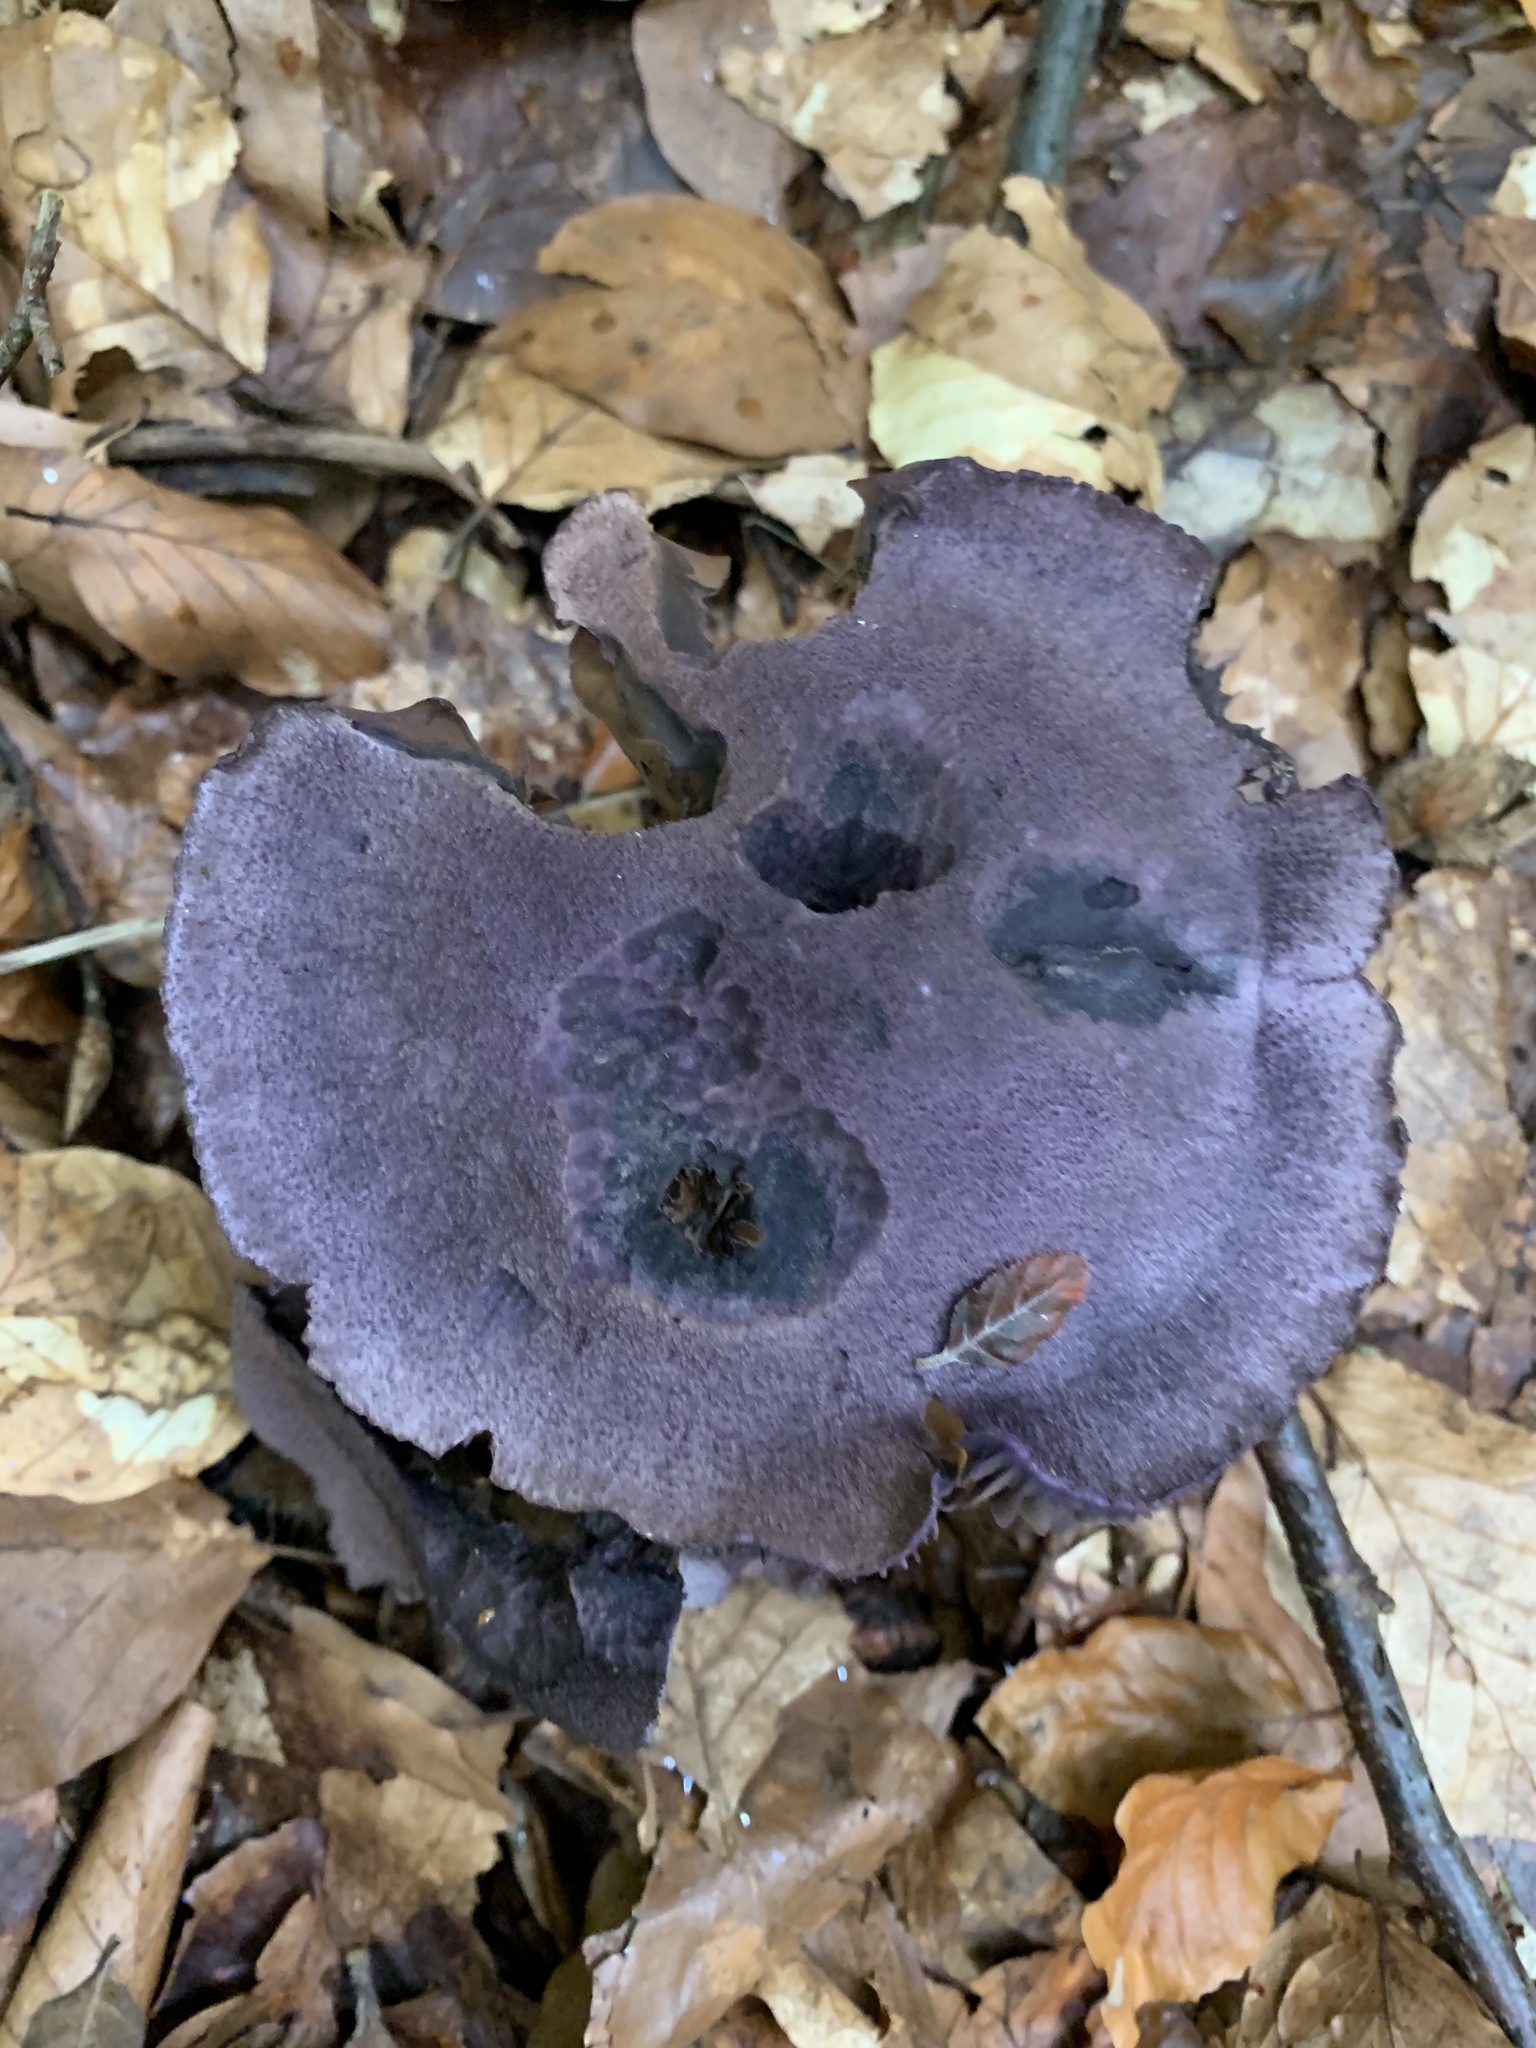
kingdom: Fungi
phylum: Basidiomycota
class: Agaricomycetes
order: Agaricales
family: Cortinariaceae
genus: Cortinarius
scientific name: Cortinarius violaceus
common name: Violet webcap
